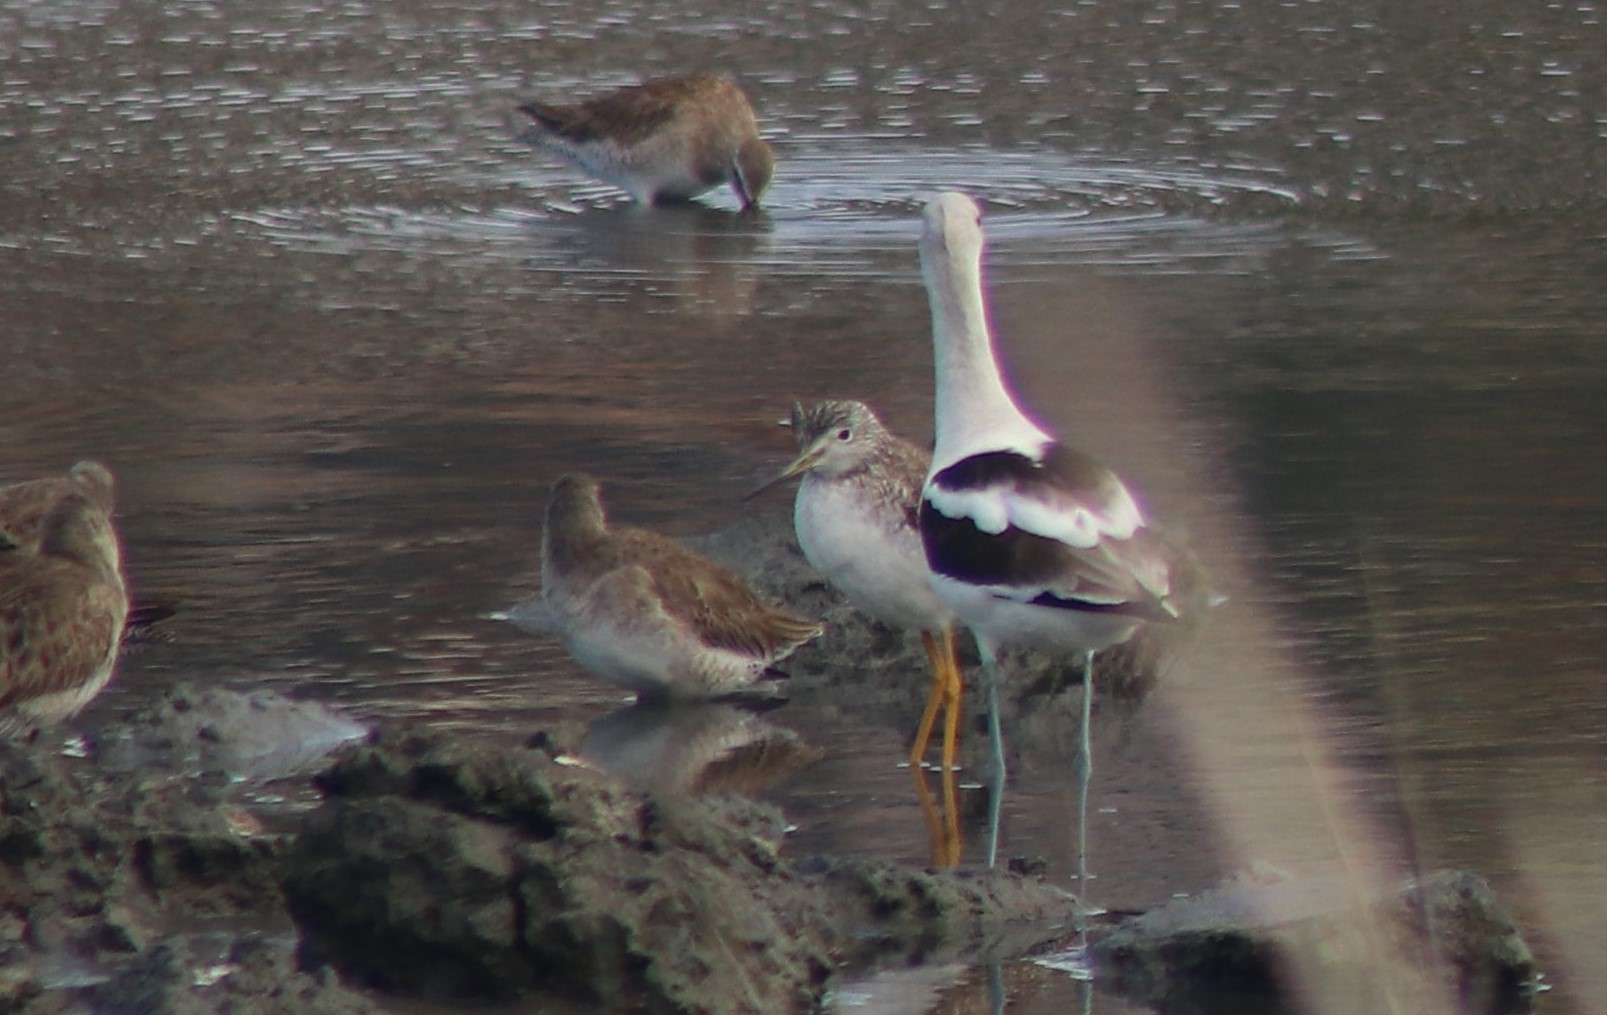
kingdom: Animalia
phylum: Chordata
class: Aves
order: Charadriiformes
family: Scolopacidae
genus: Tringa
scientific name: Tringa melanoleuca
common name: Greater yellowlegs
